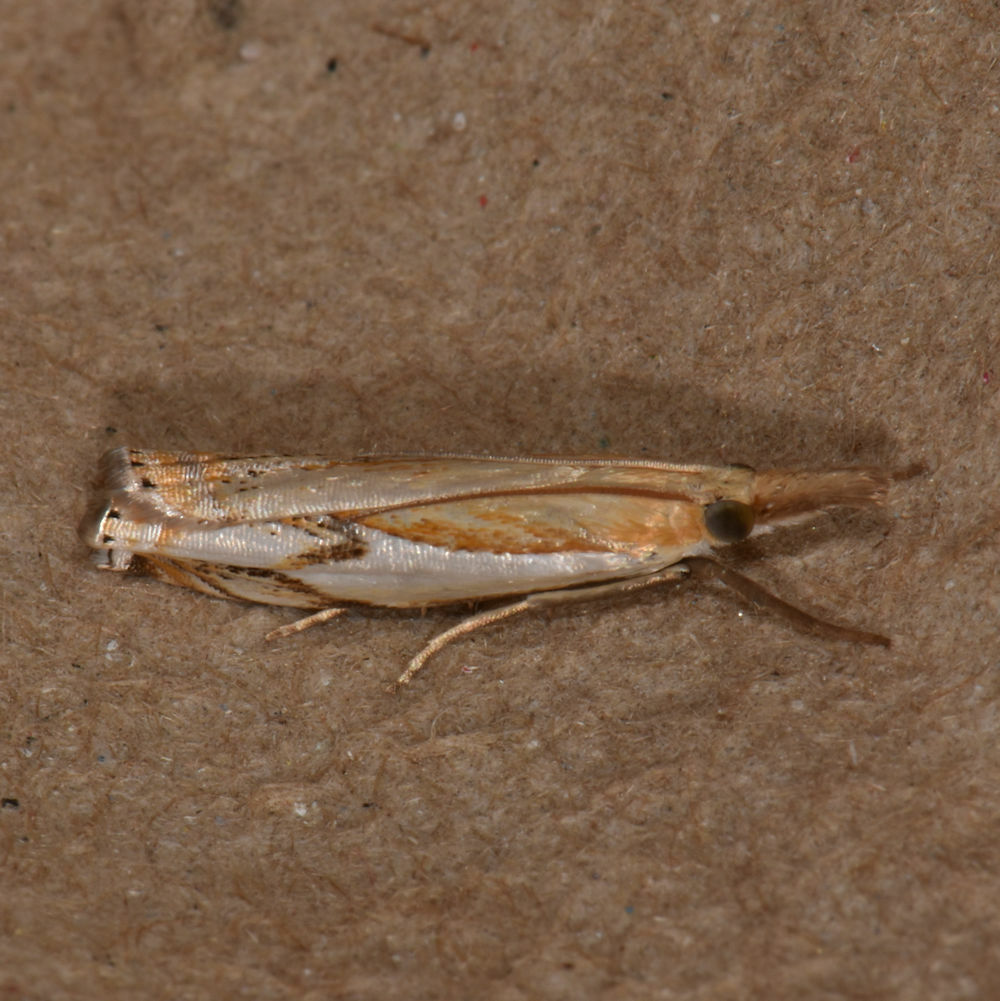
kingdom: Animalia
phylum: Arthropoda
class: Insecta
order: Lepidoptera
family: Crambidae
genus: Crambus
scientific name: Crambus agitatellus
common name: Double-banded grass-veneer
